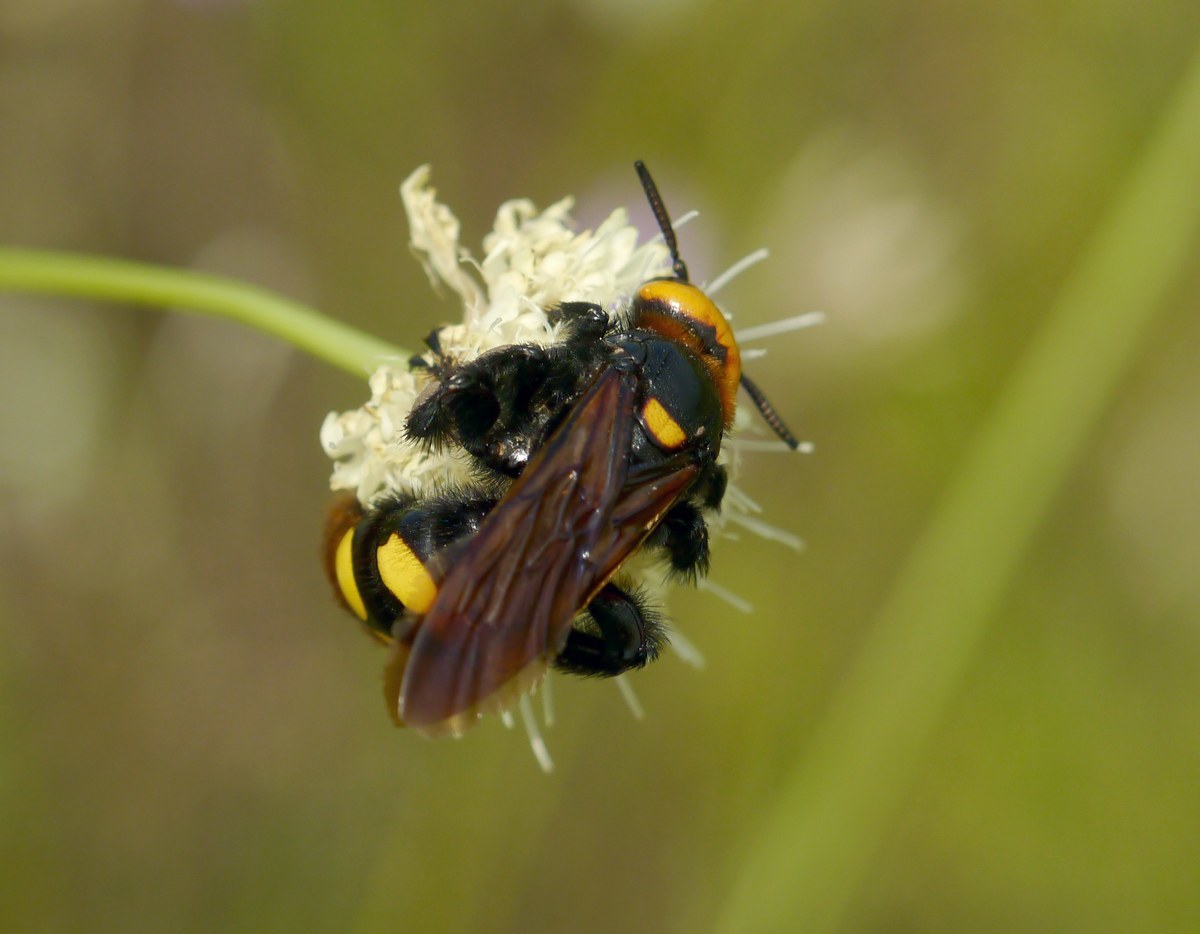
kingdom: Animalia
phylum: Arthropoda
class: Insecta
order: Hymenoptera
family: Scoliidae
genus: Megascolia
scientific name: Megascolia maculata
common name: Mammoth wasp
